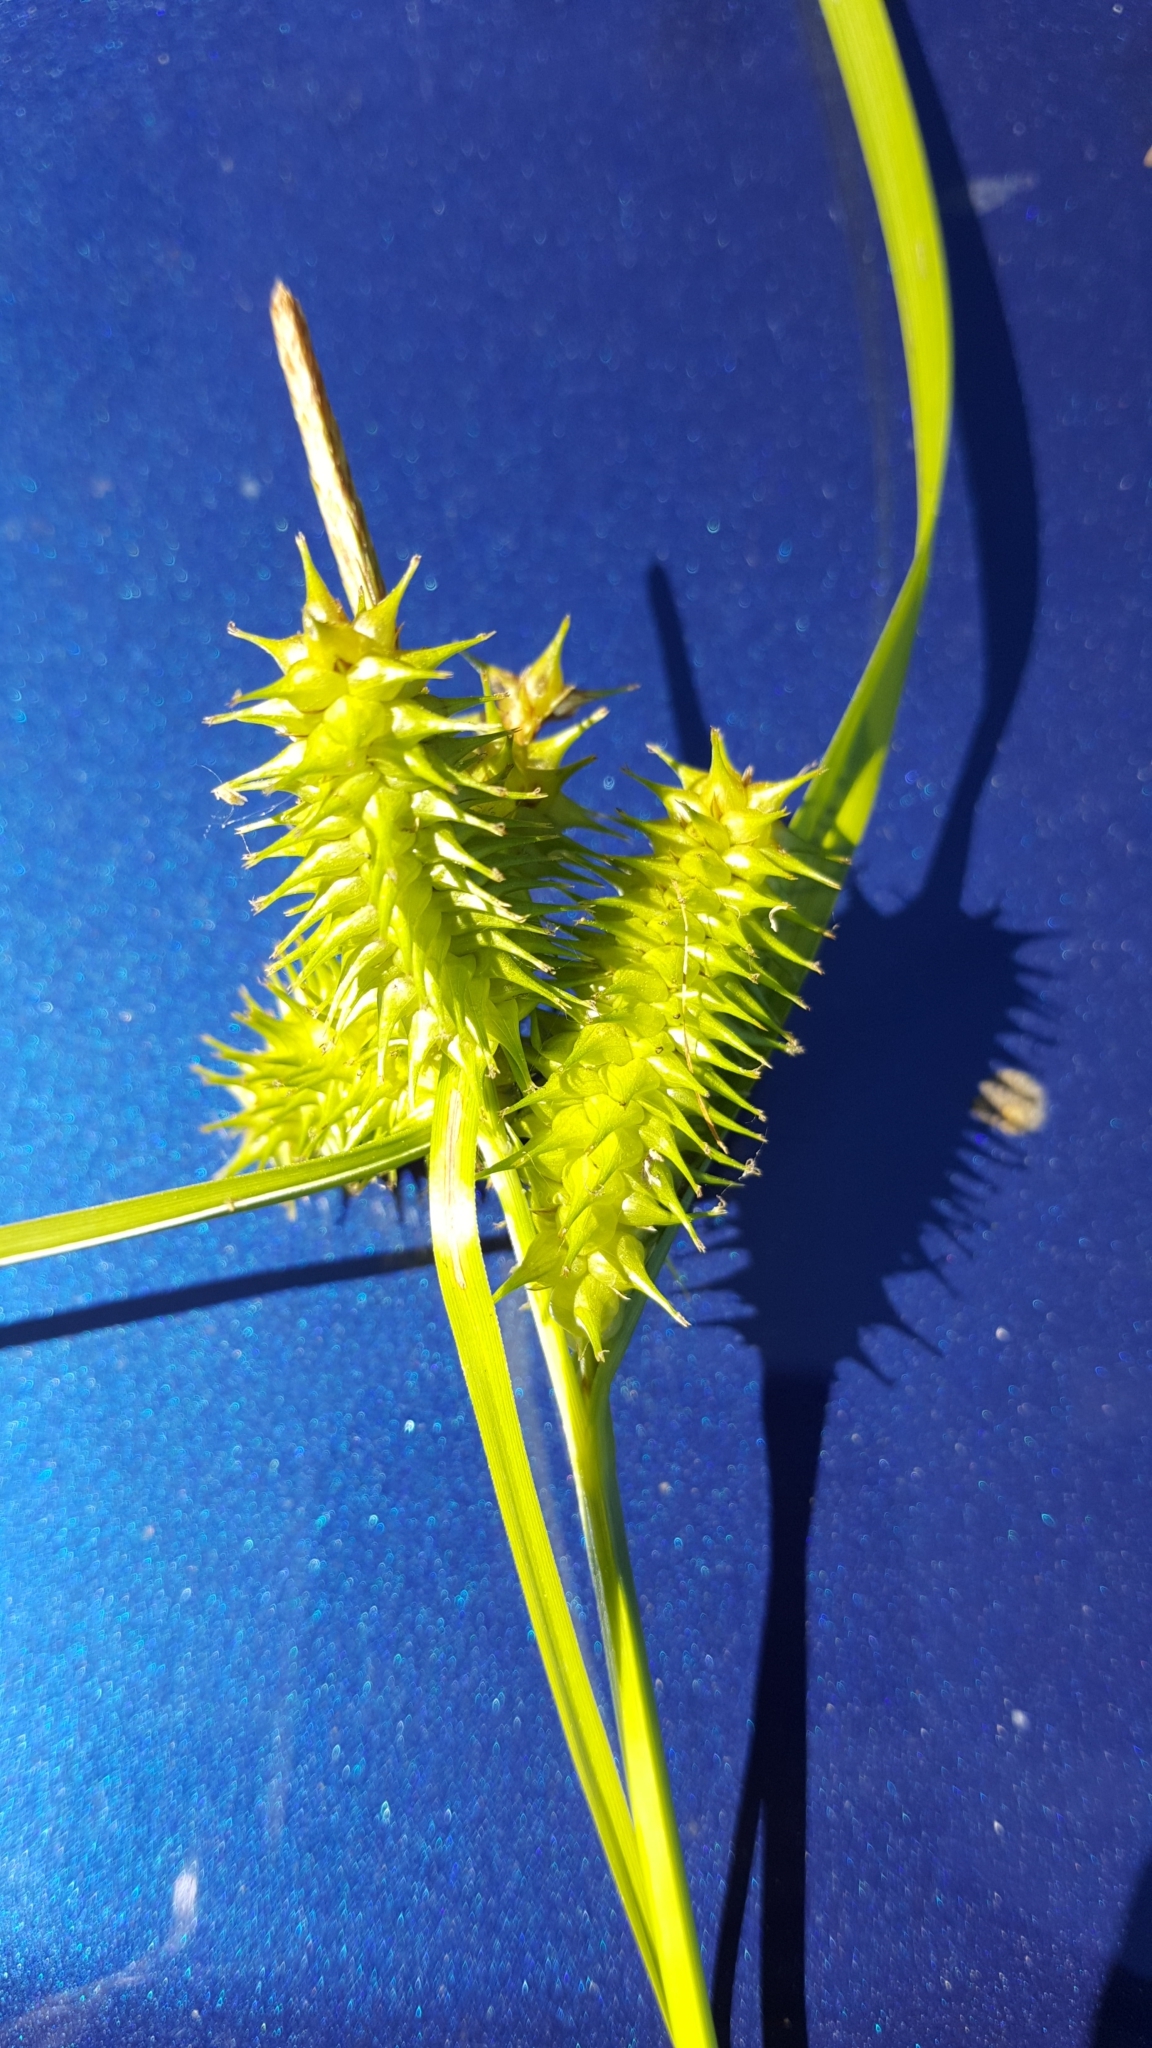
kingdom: Plantae
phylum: Tracheophyta
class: Liliopsida
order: Poales
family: Cyperaceae
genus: Carex
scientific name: Carex retrorsa
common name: Knot-sheath sedge
